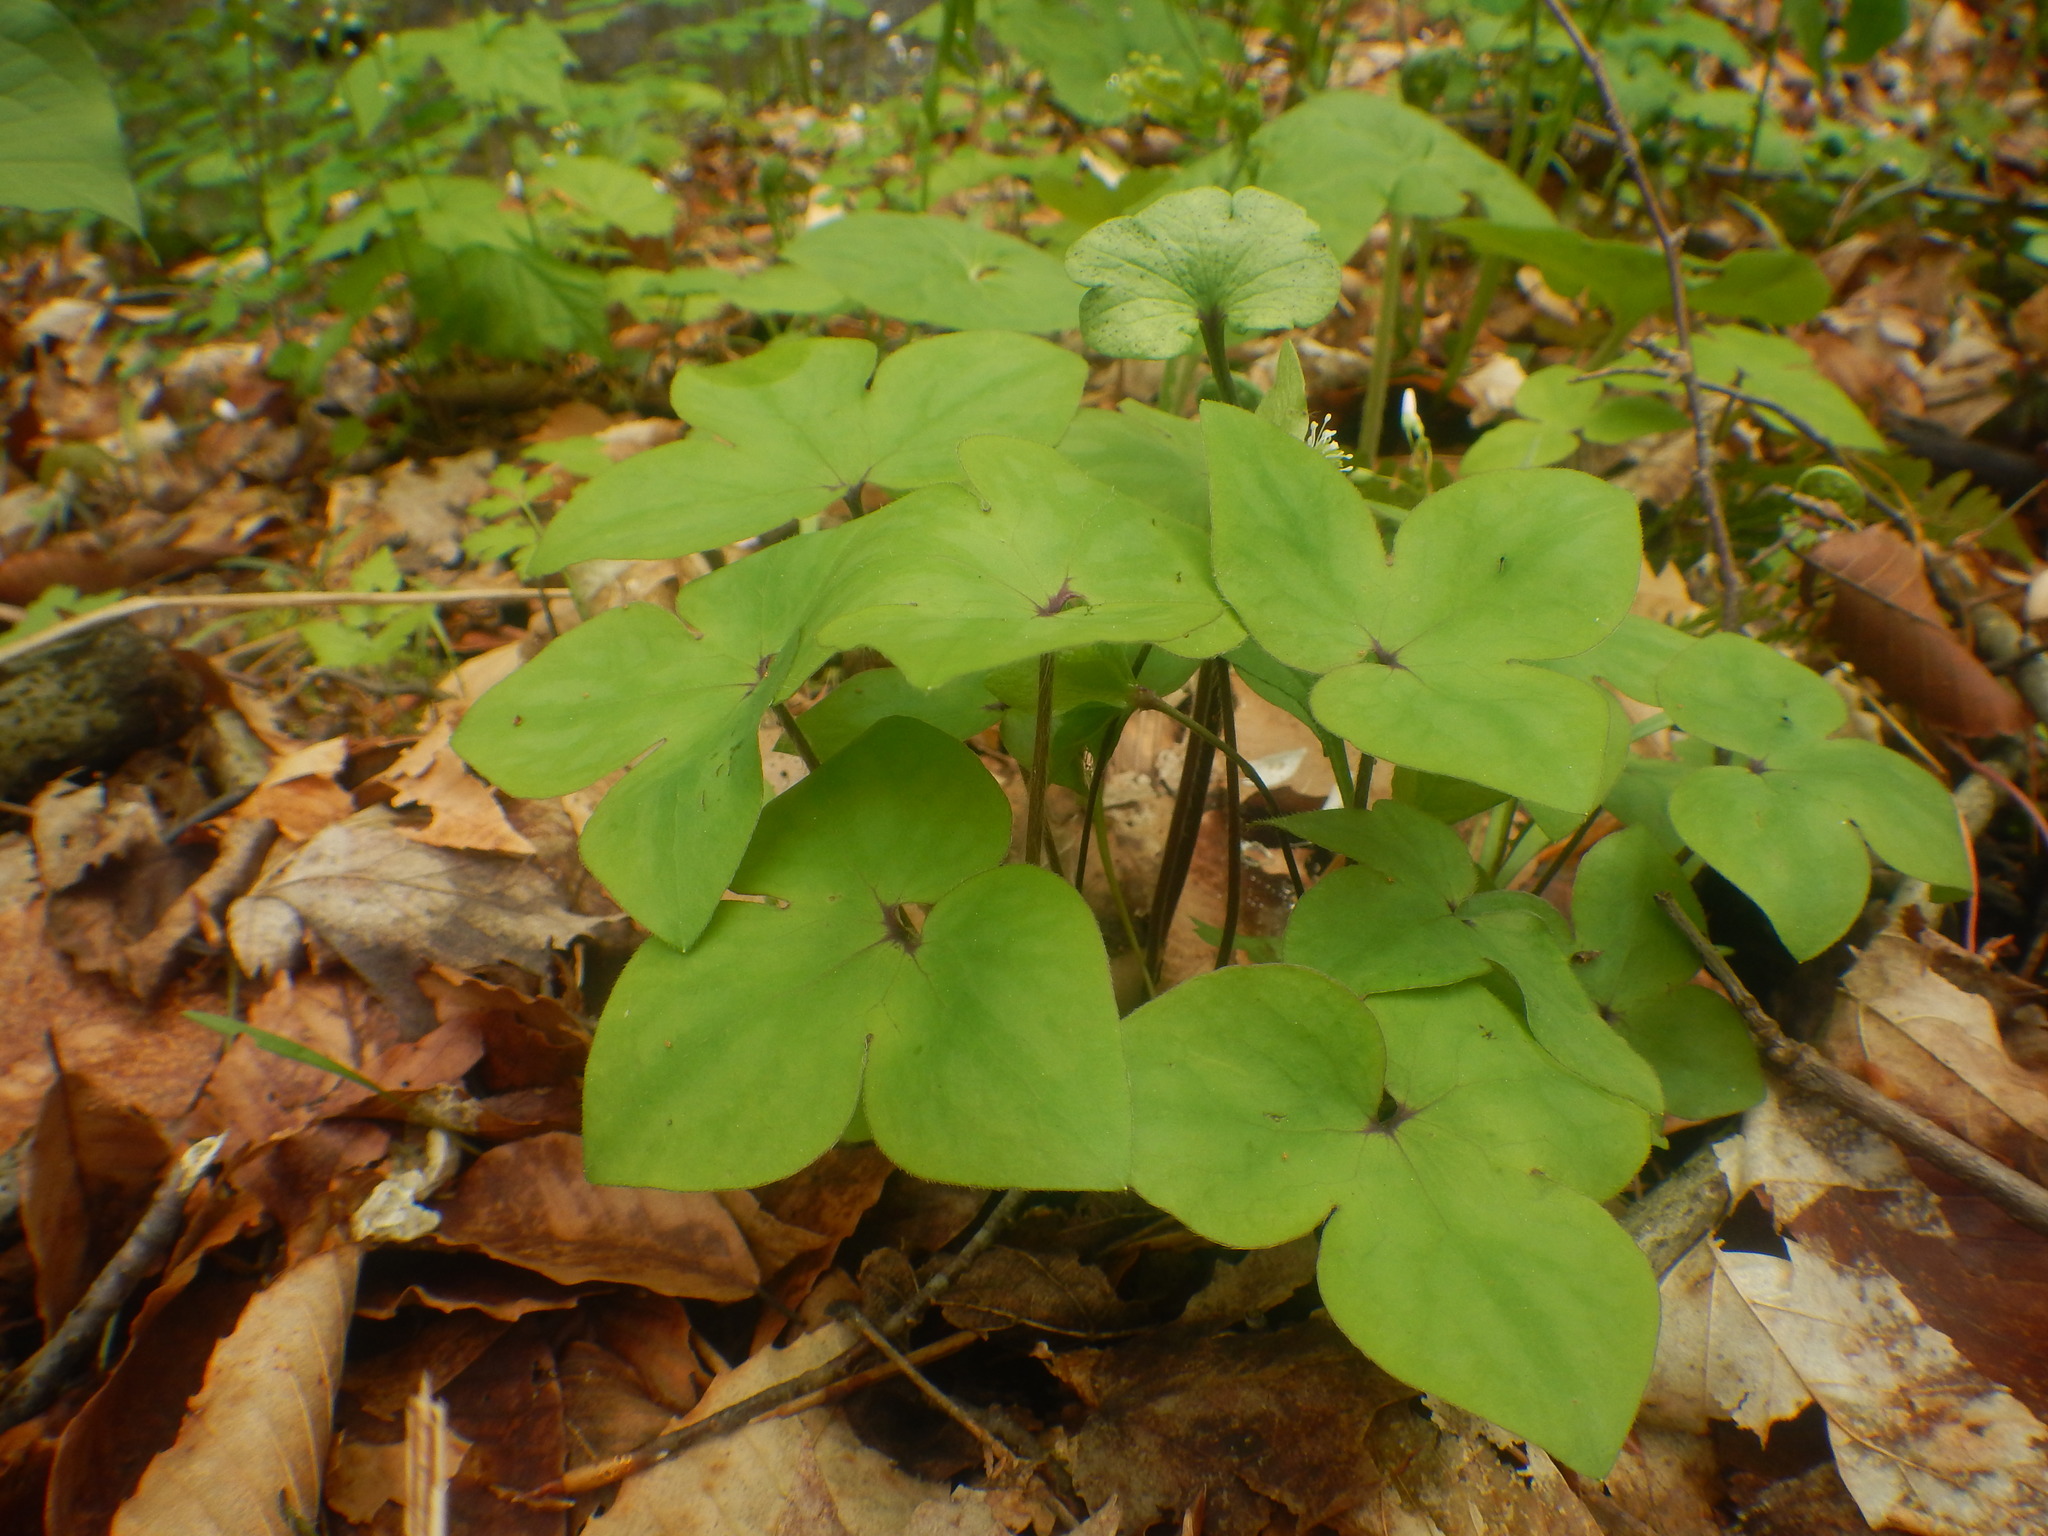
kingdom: Plantae
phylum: Tracheophyta
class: Magnoliopsida
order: Ranunculales
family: Ranunculaceae
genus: Hepatica
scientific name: Hepatica acutiloba
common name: Sharp-lobed hepatica
